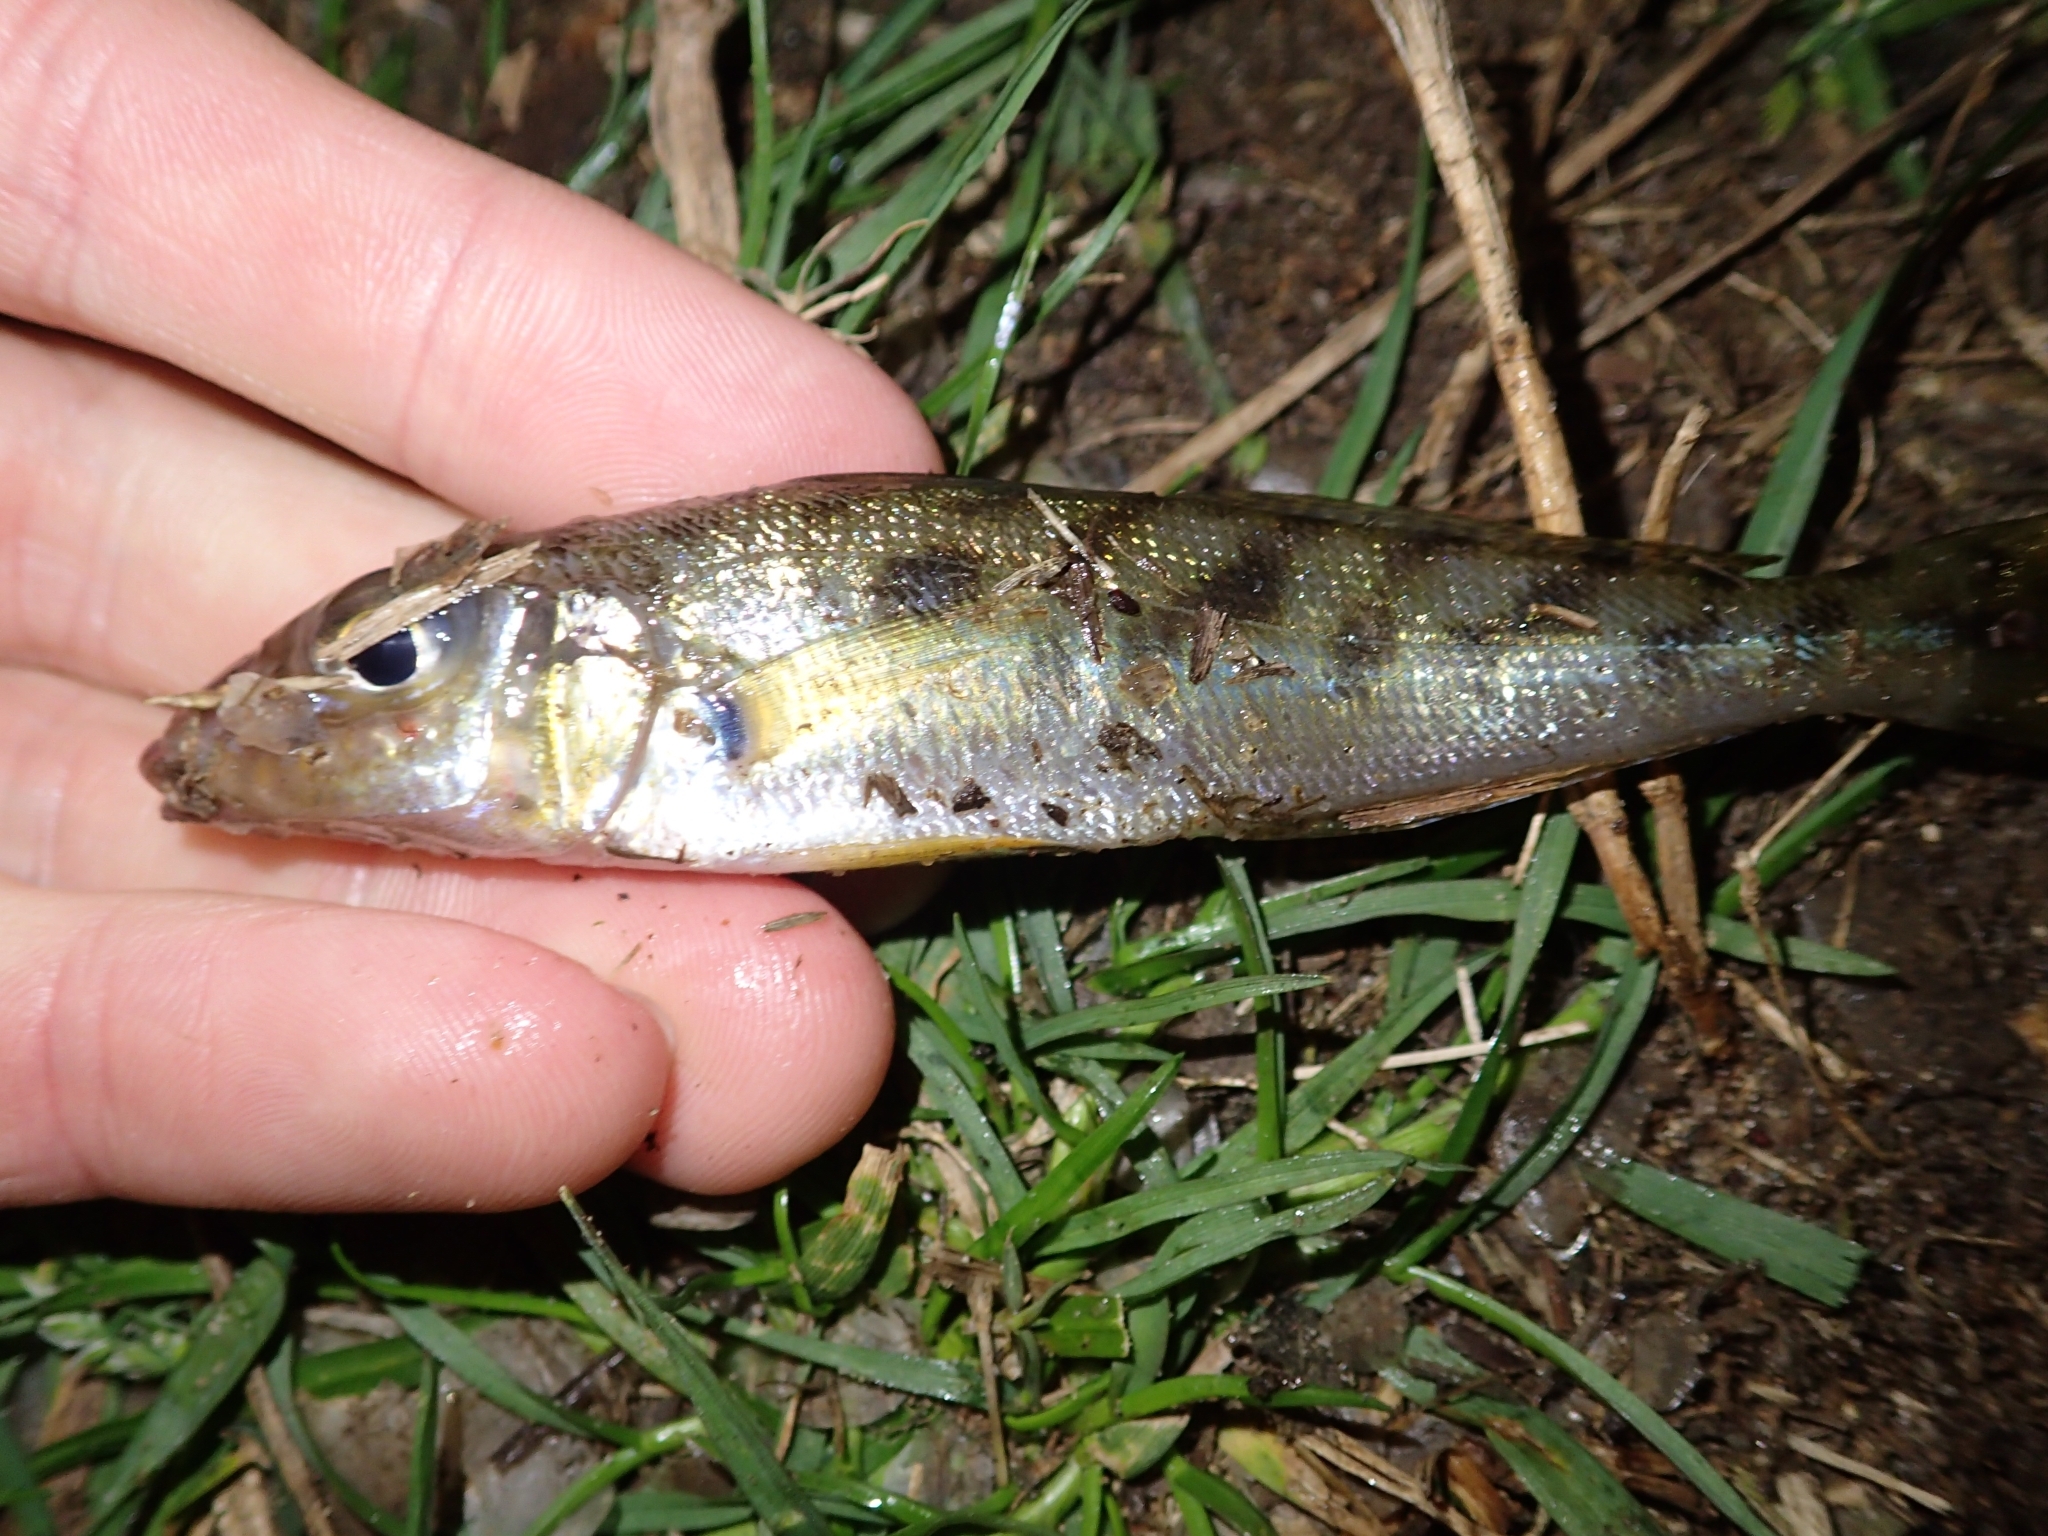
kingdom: Animalia
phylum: Chordata
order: Perciformes
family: Sillaginidae
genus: Sillago
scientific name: Sillago maculata
